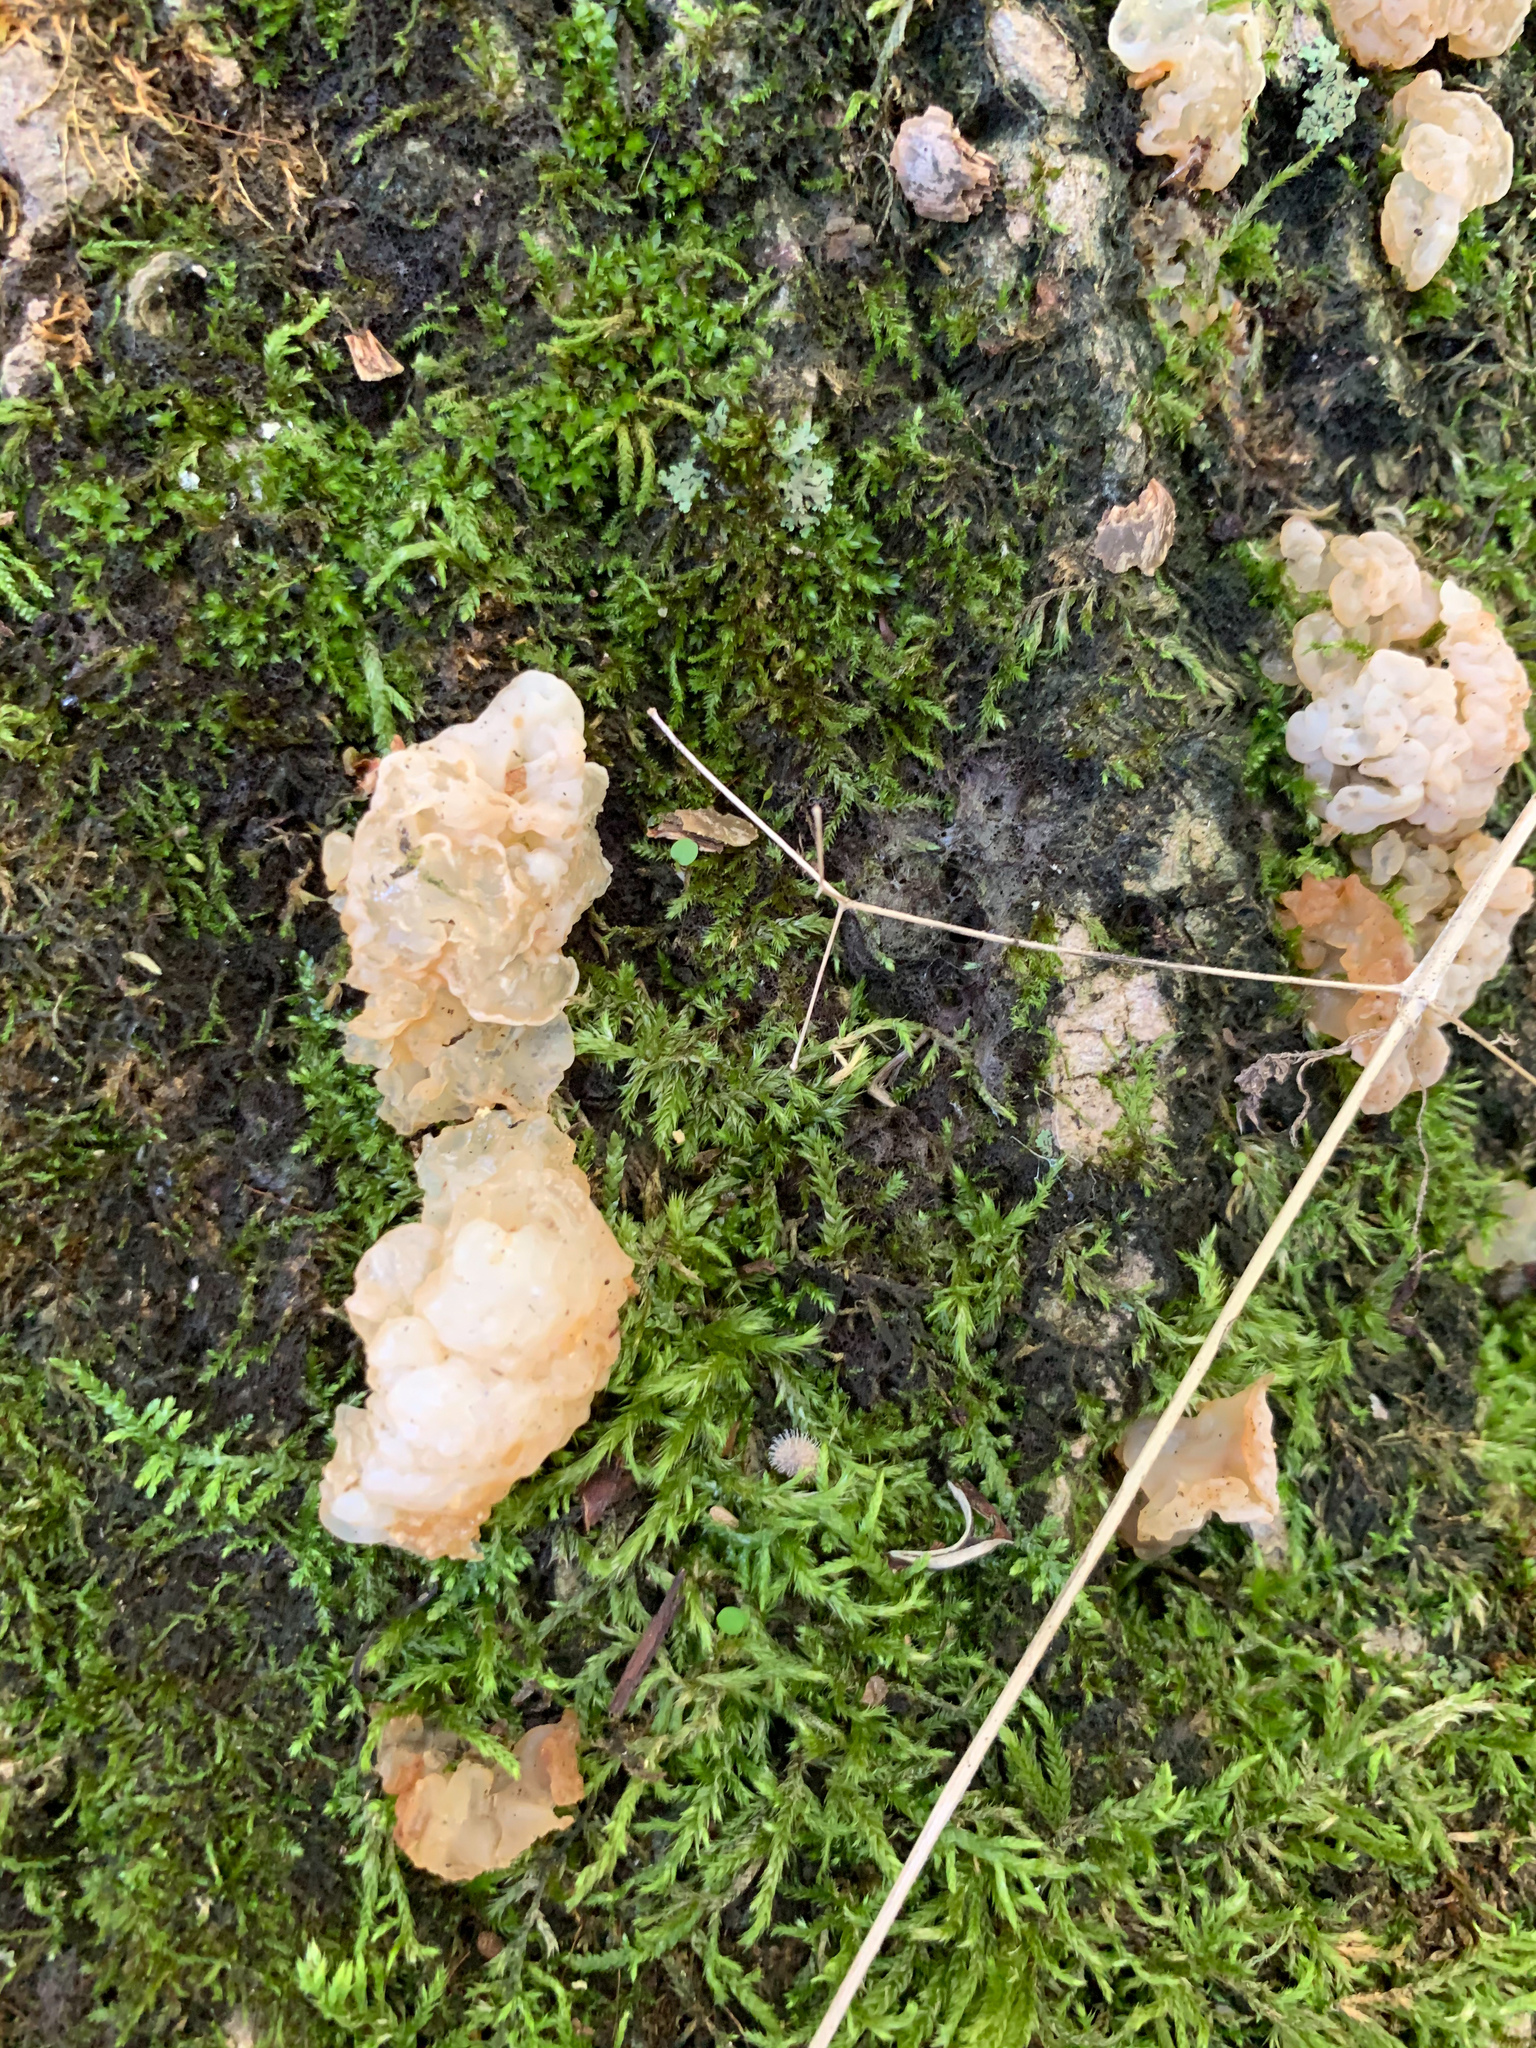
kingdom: Fungi
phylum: Basidiomycota
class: Agaricomycetes
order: Auriculariales
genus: Ductifera
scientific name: Ductifera pululahuana
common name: White jelly fungus
